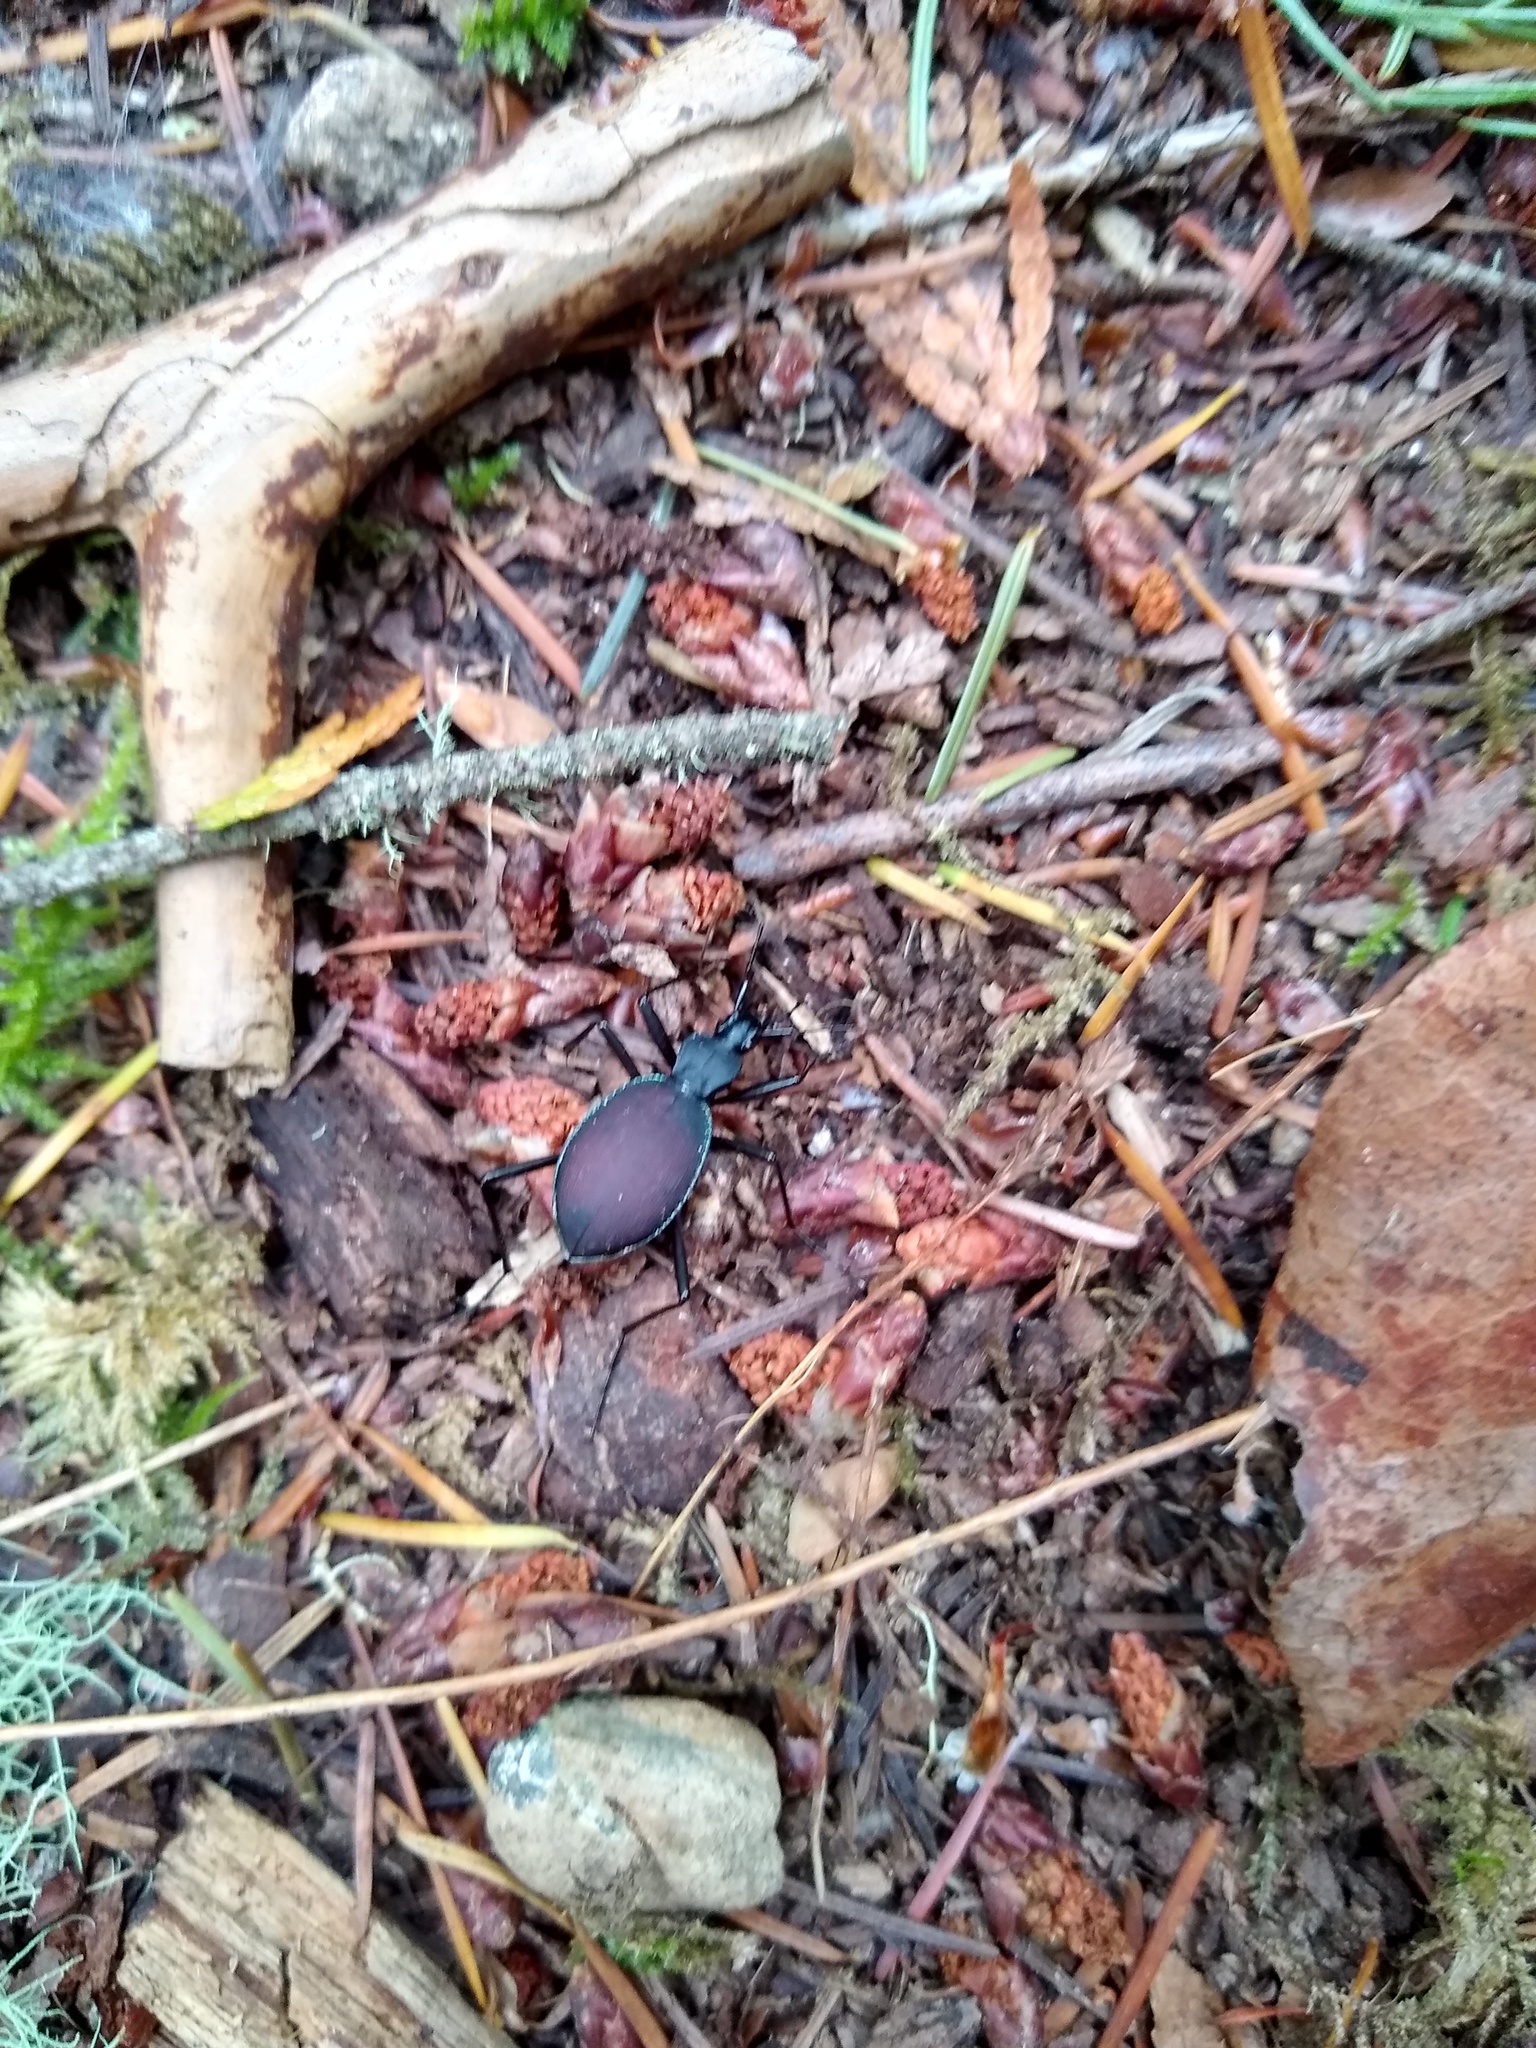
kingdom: Animalia
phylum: Arthropoda
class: Insecta
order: Coleoptera
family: Carabidae
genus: Scaphinotus
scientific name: Scaphinotus angusticollis
